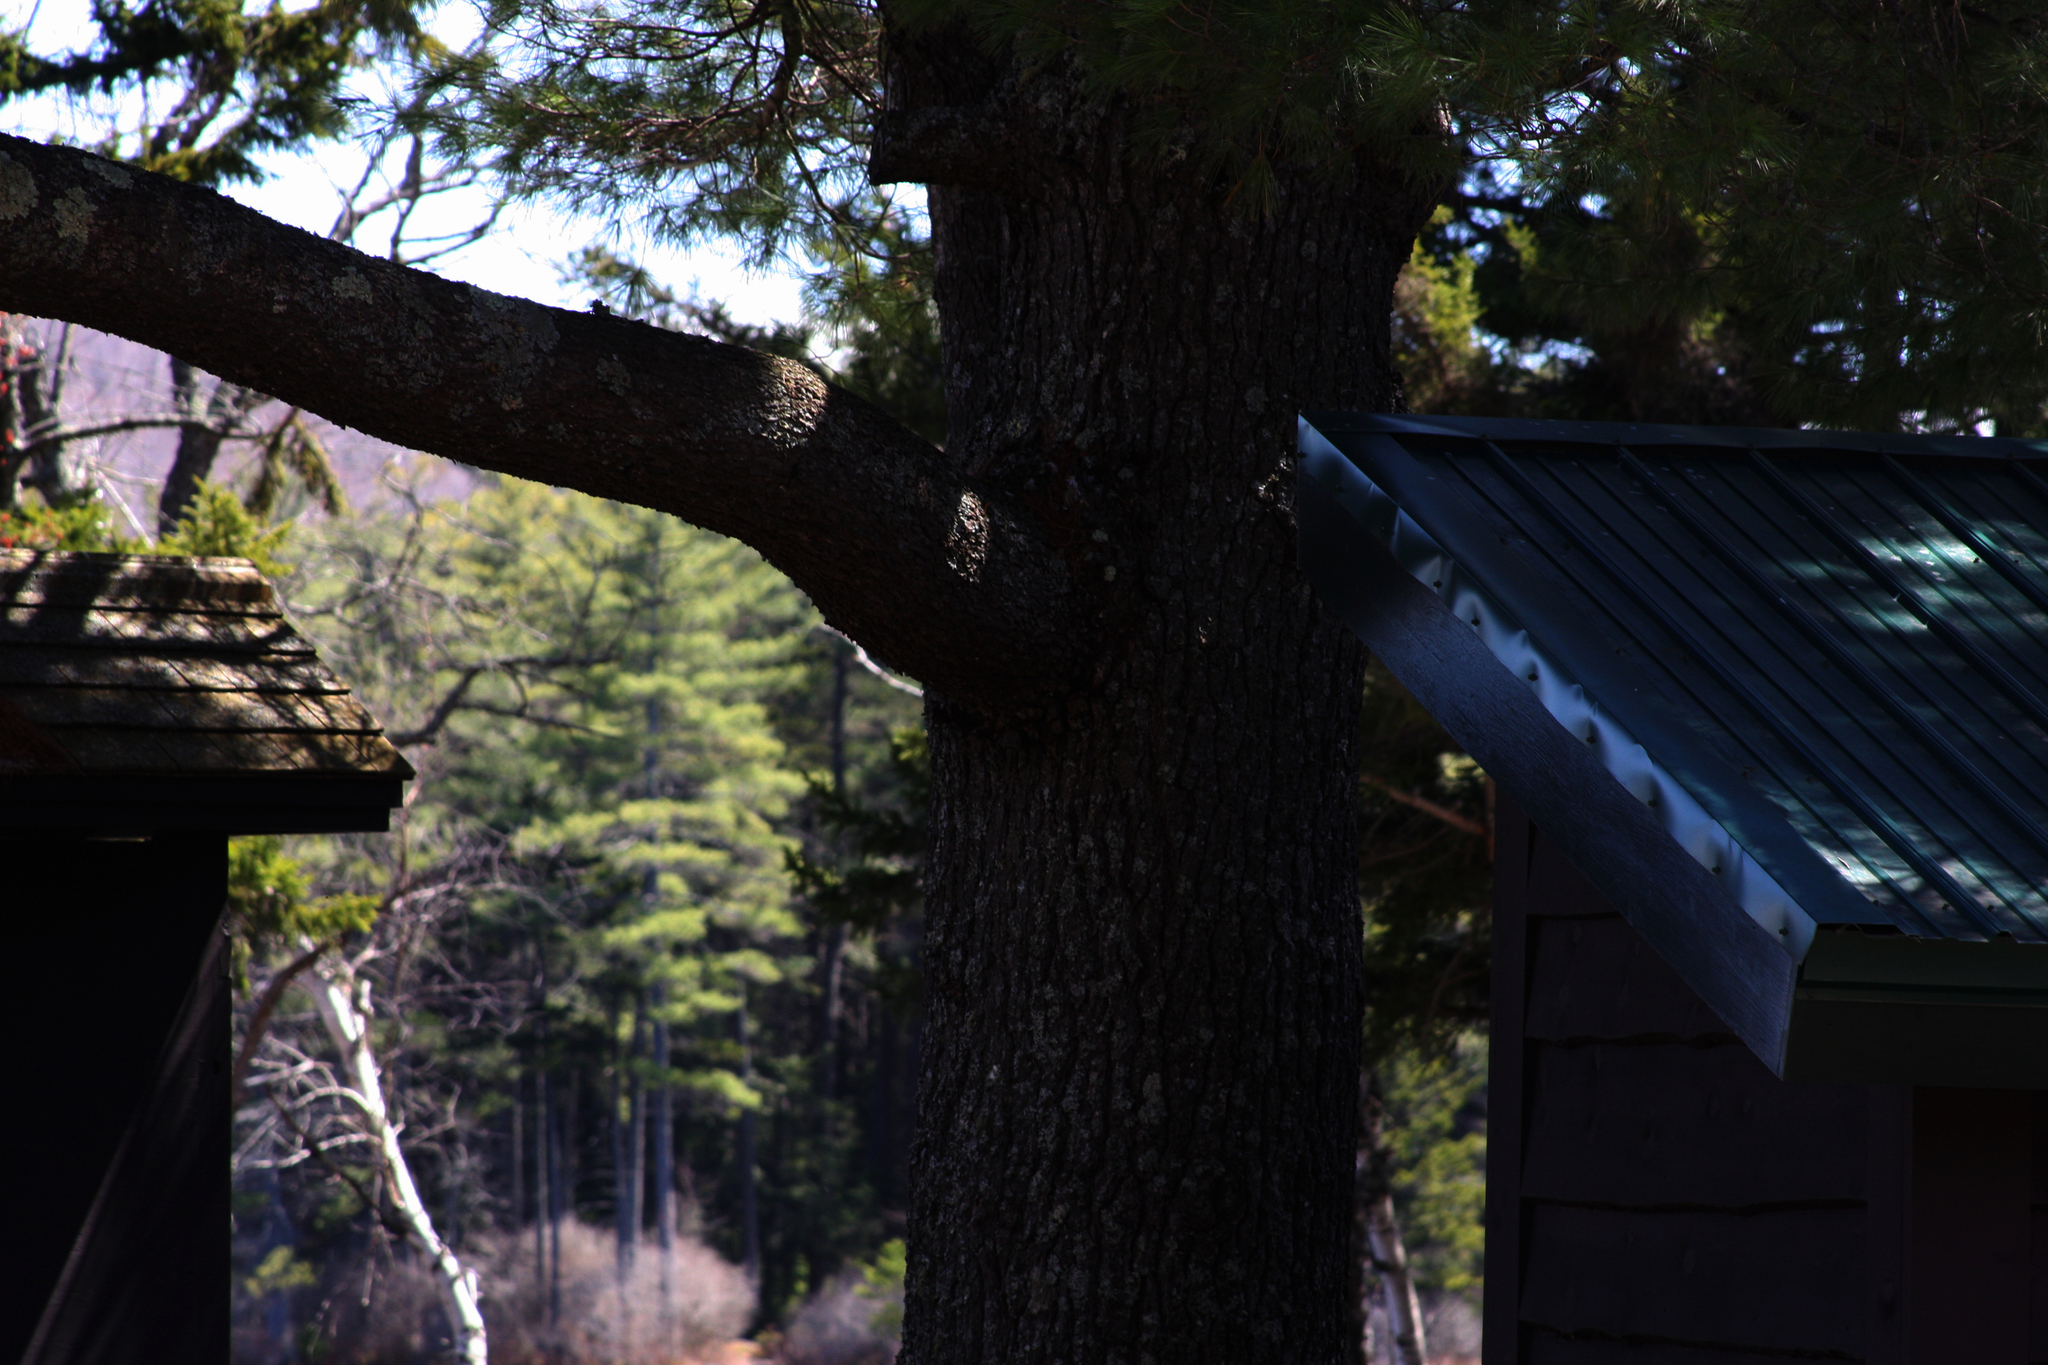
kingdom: Plantae
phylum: Tracheophyta
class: Pinopsida
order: Pinales
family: Pinaceae
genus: Pinus
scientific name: Pinus strobus
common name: Weymouth pine
